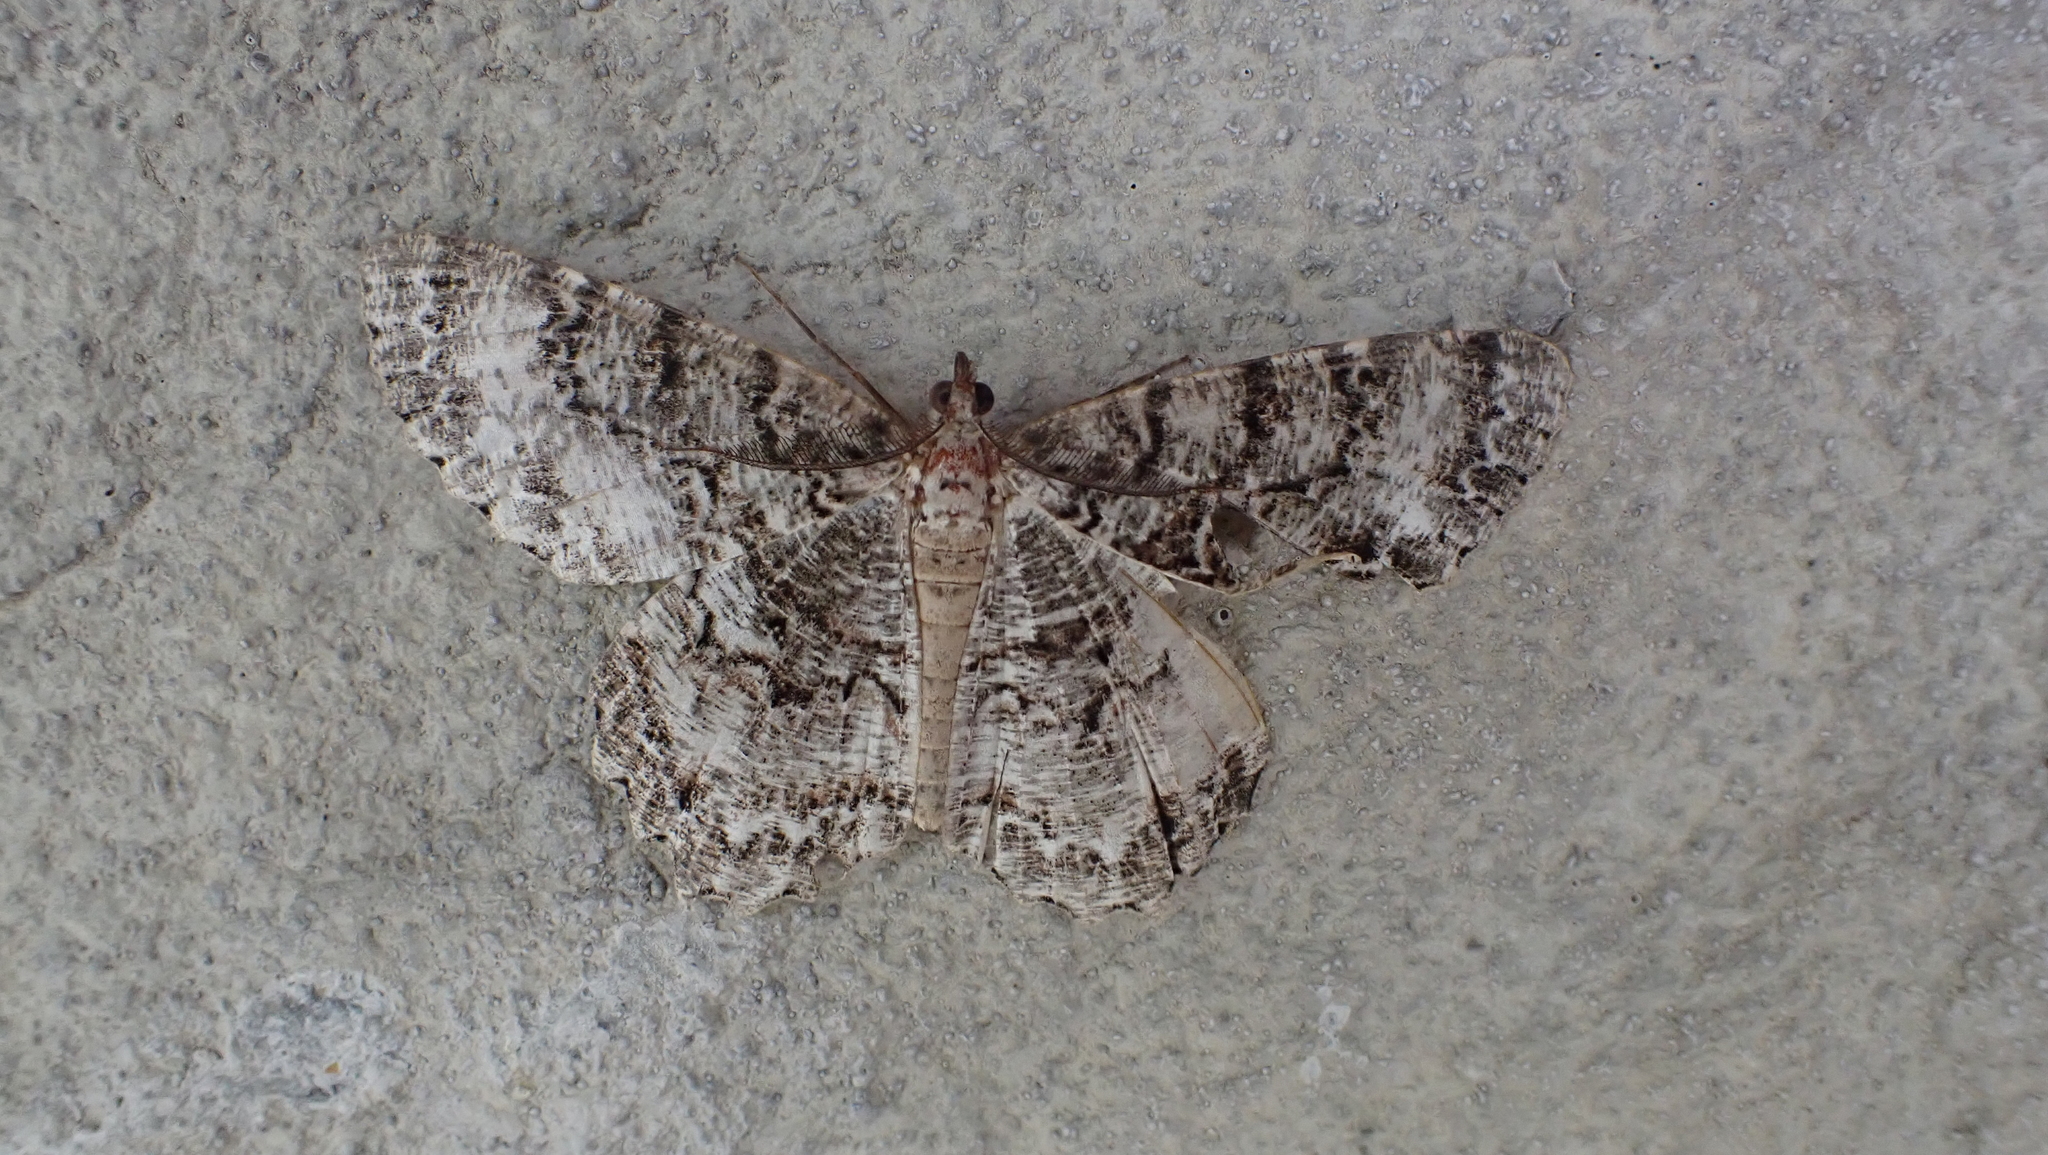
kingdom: Animalia
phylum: Arthropoda
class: Insecta
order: Lepidoptera
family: Geometridae
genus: Epimecis
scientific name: Epimecis hortaria
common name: Tulip-tree beauty
